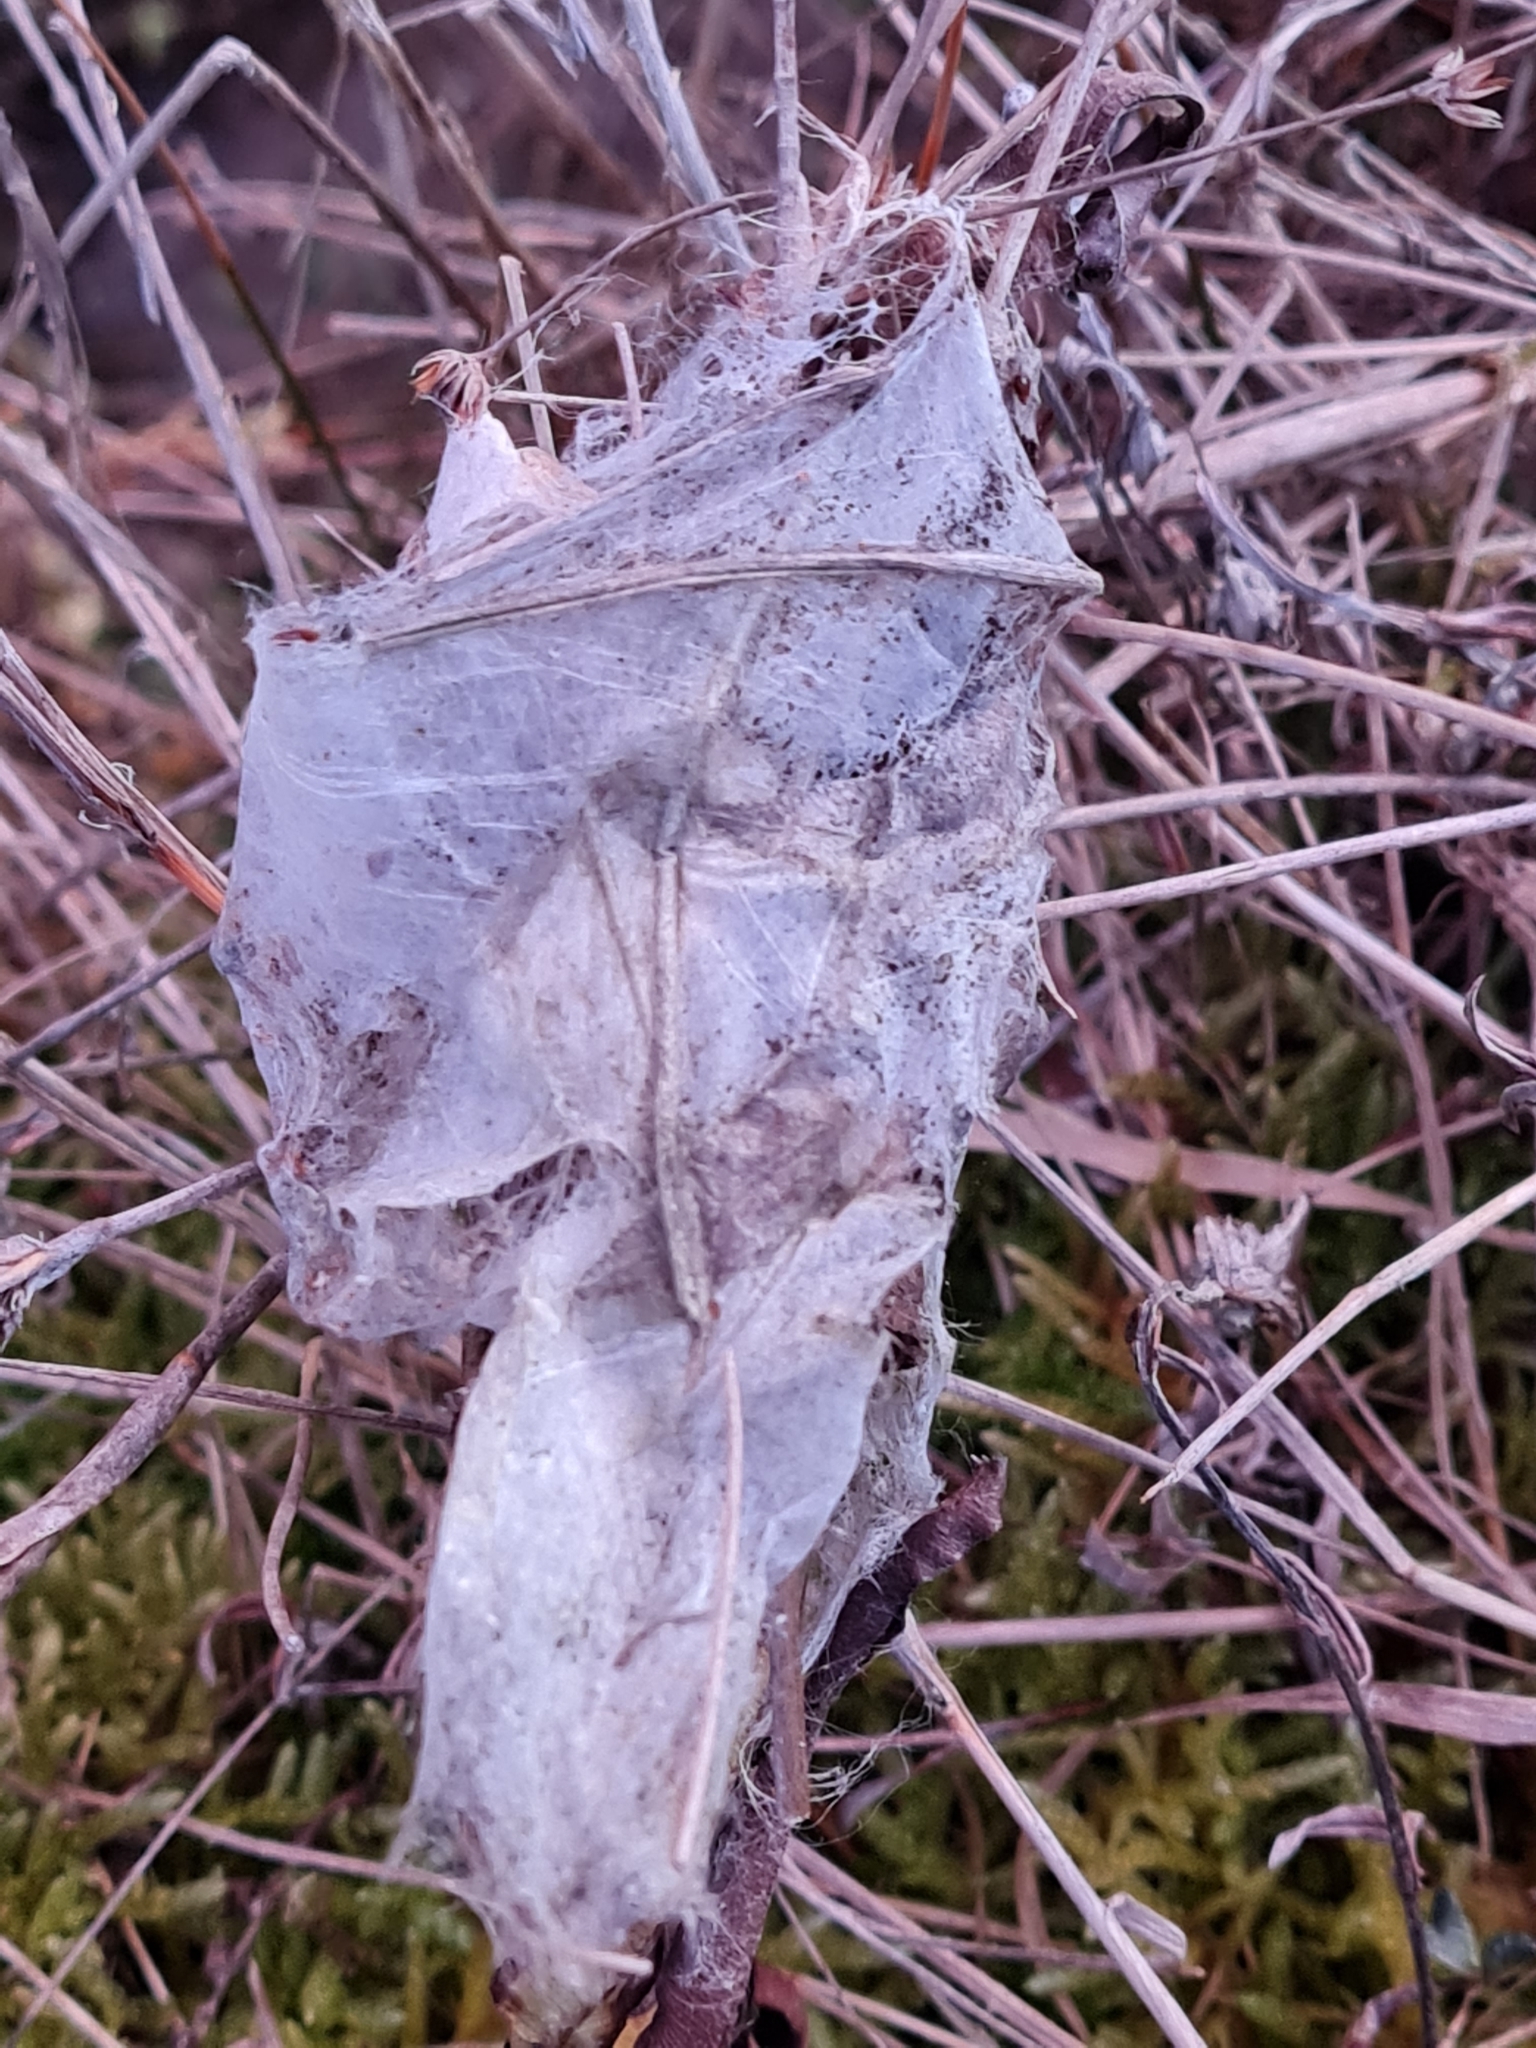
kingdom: Animalia
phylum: Arthropoda
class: Arachnida
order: Araneae
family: Pisauridae
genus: Dolomedes
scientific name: Dolomedes minor
